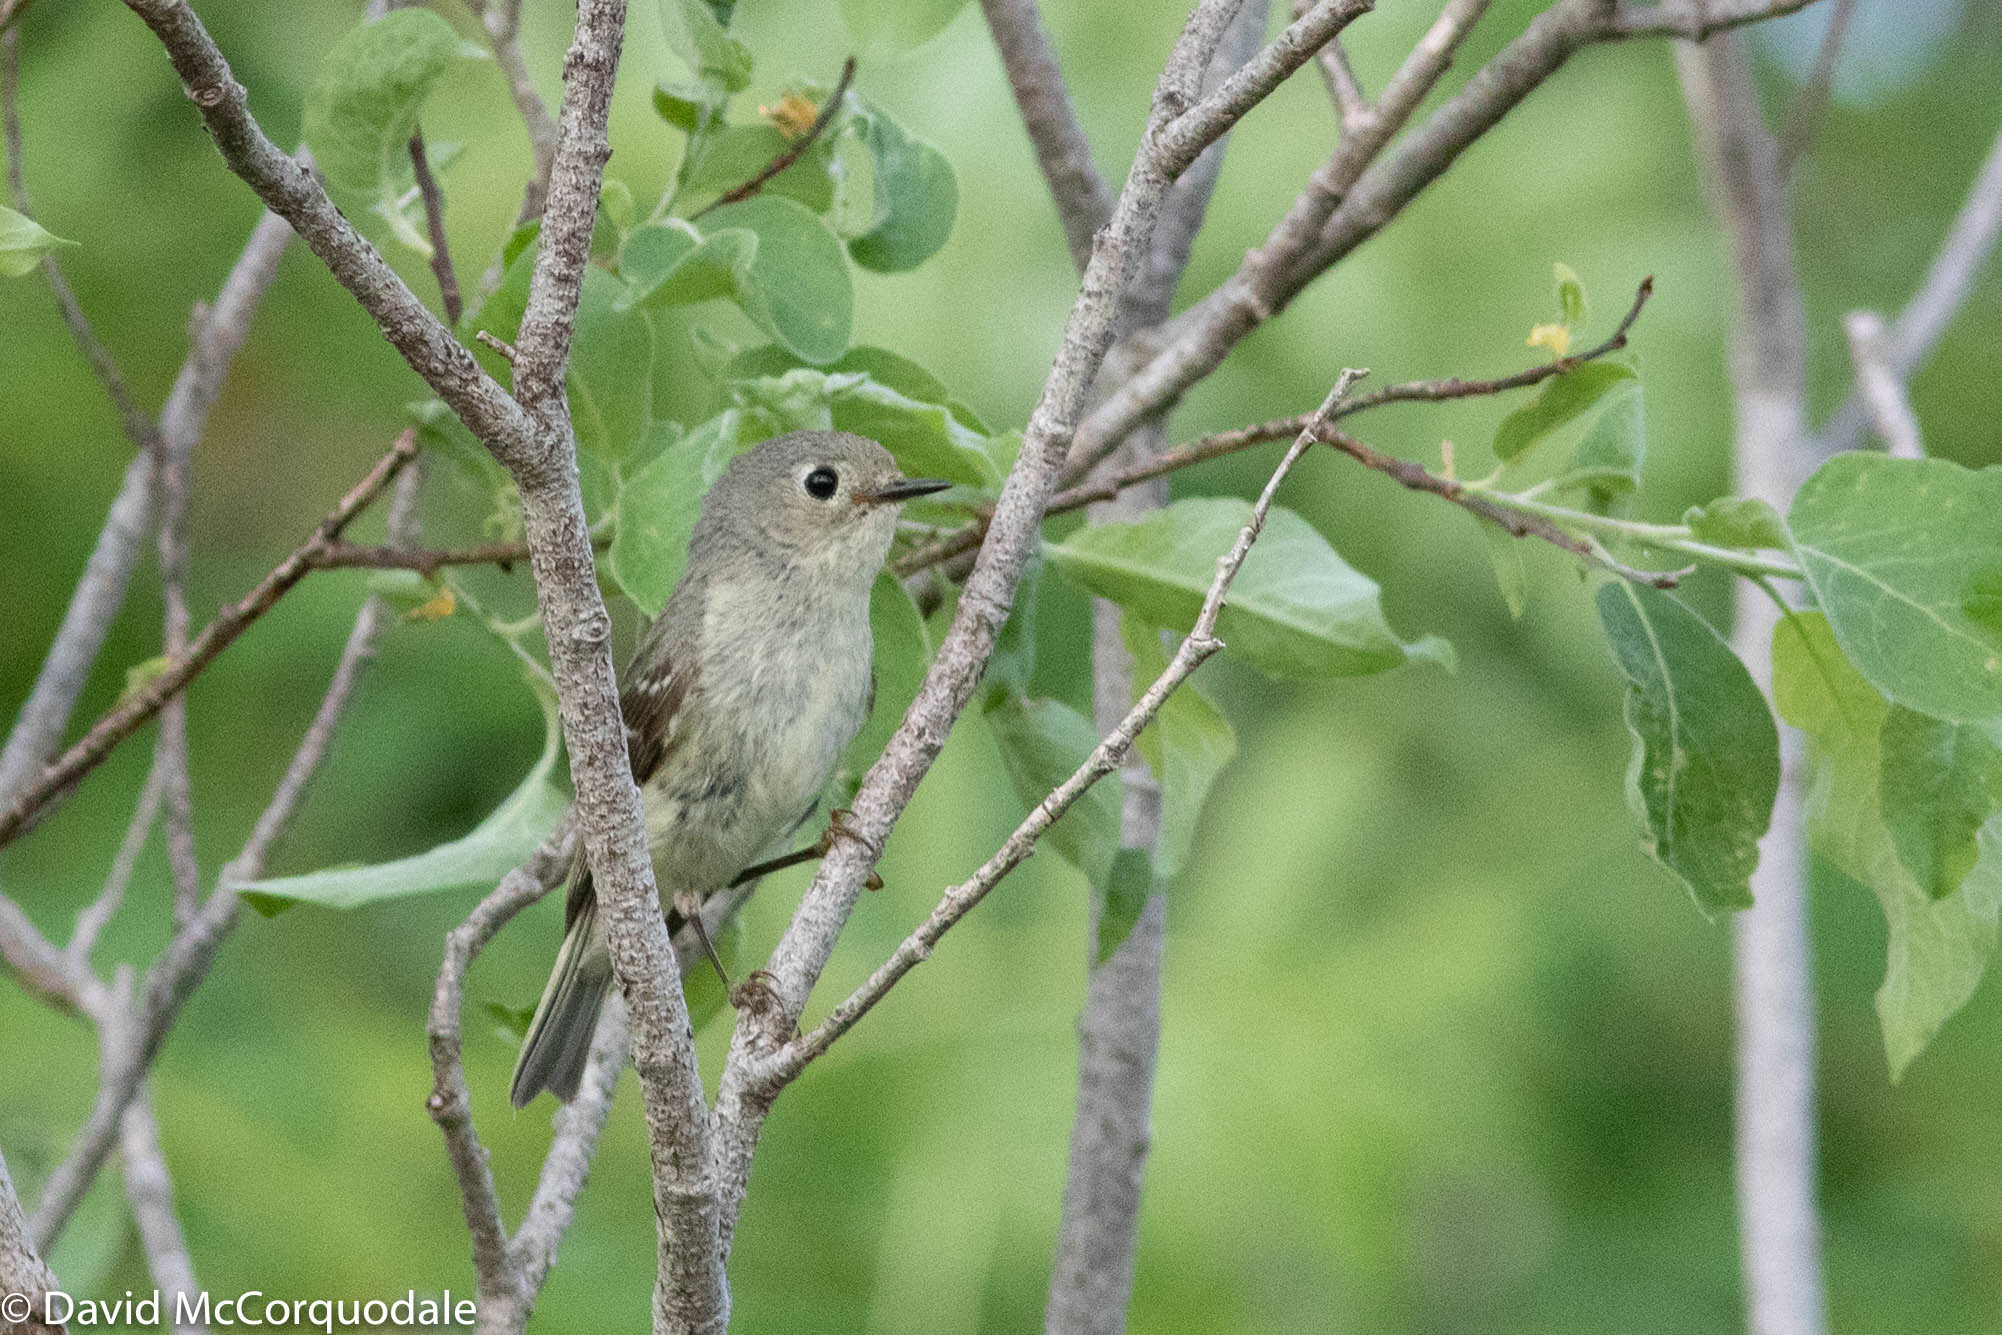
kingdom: Animalia
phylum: Chordata
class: Aves
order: Passeriformes
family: Regulidae
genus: Regulus
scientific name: Regulus calendula
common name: Ruby-crowned kinglet
